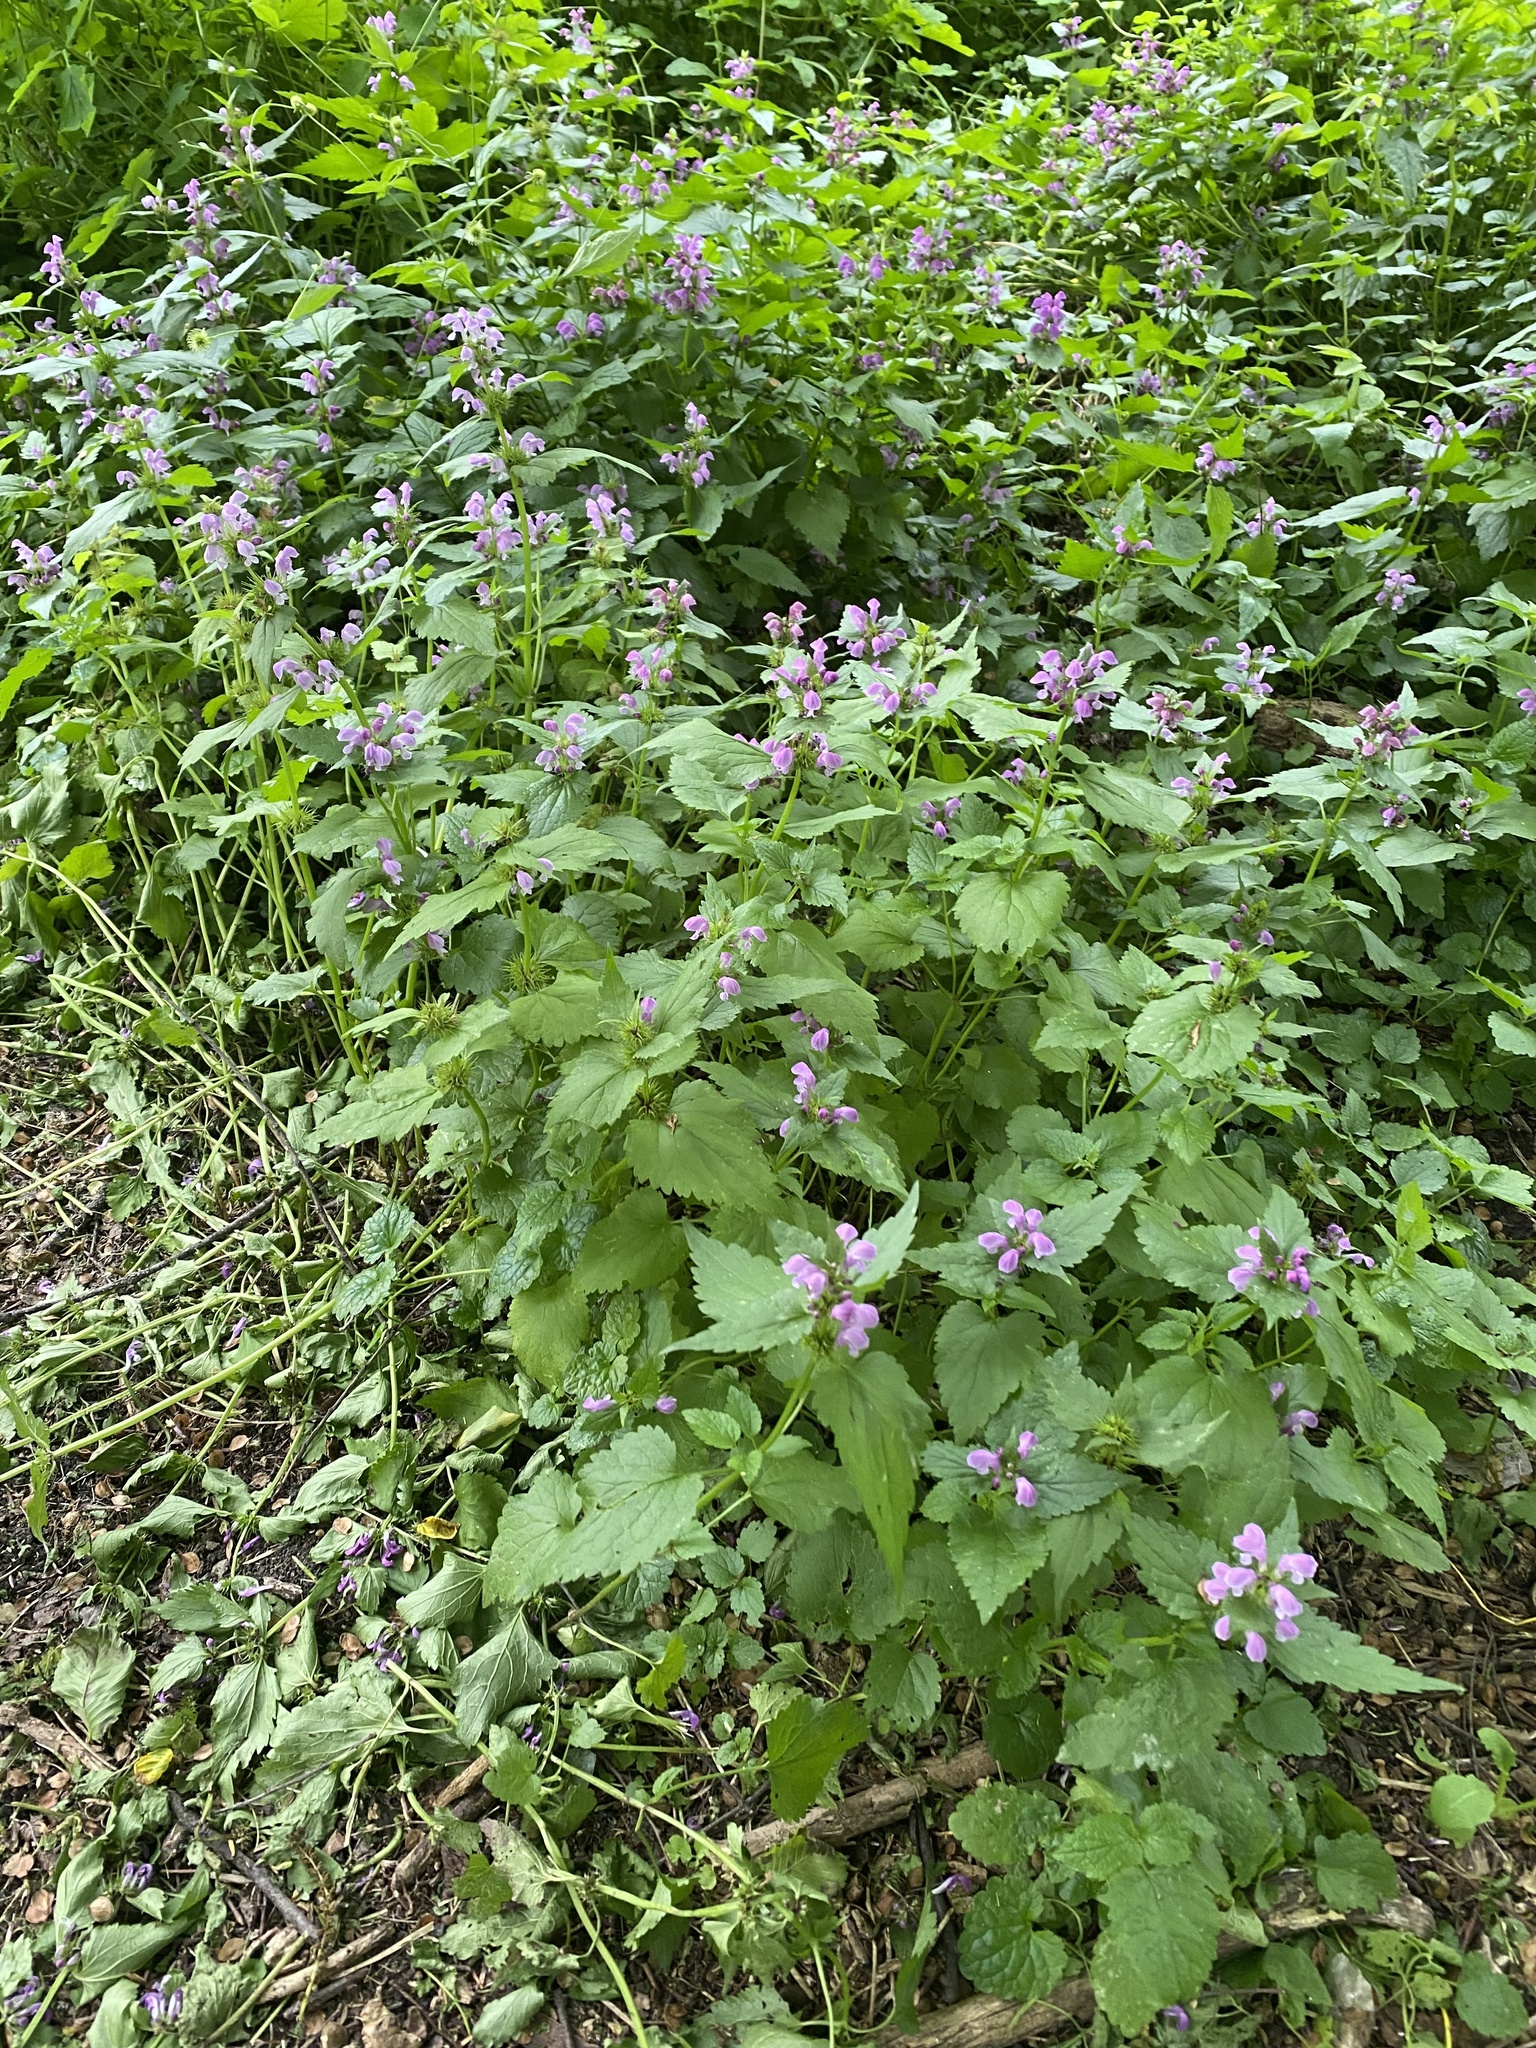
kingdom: Plantae
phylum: Tracheophyta
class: Magnoliopsida
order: Lamiales
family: Lamiaceae
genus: Lamium
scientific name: Lamium maculatum
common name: Spotted dead-nettle
